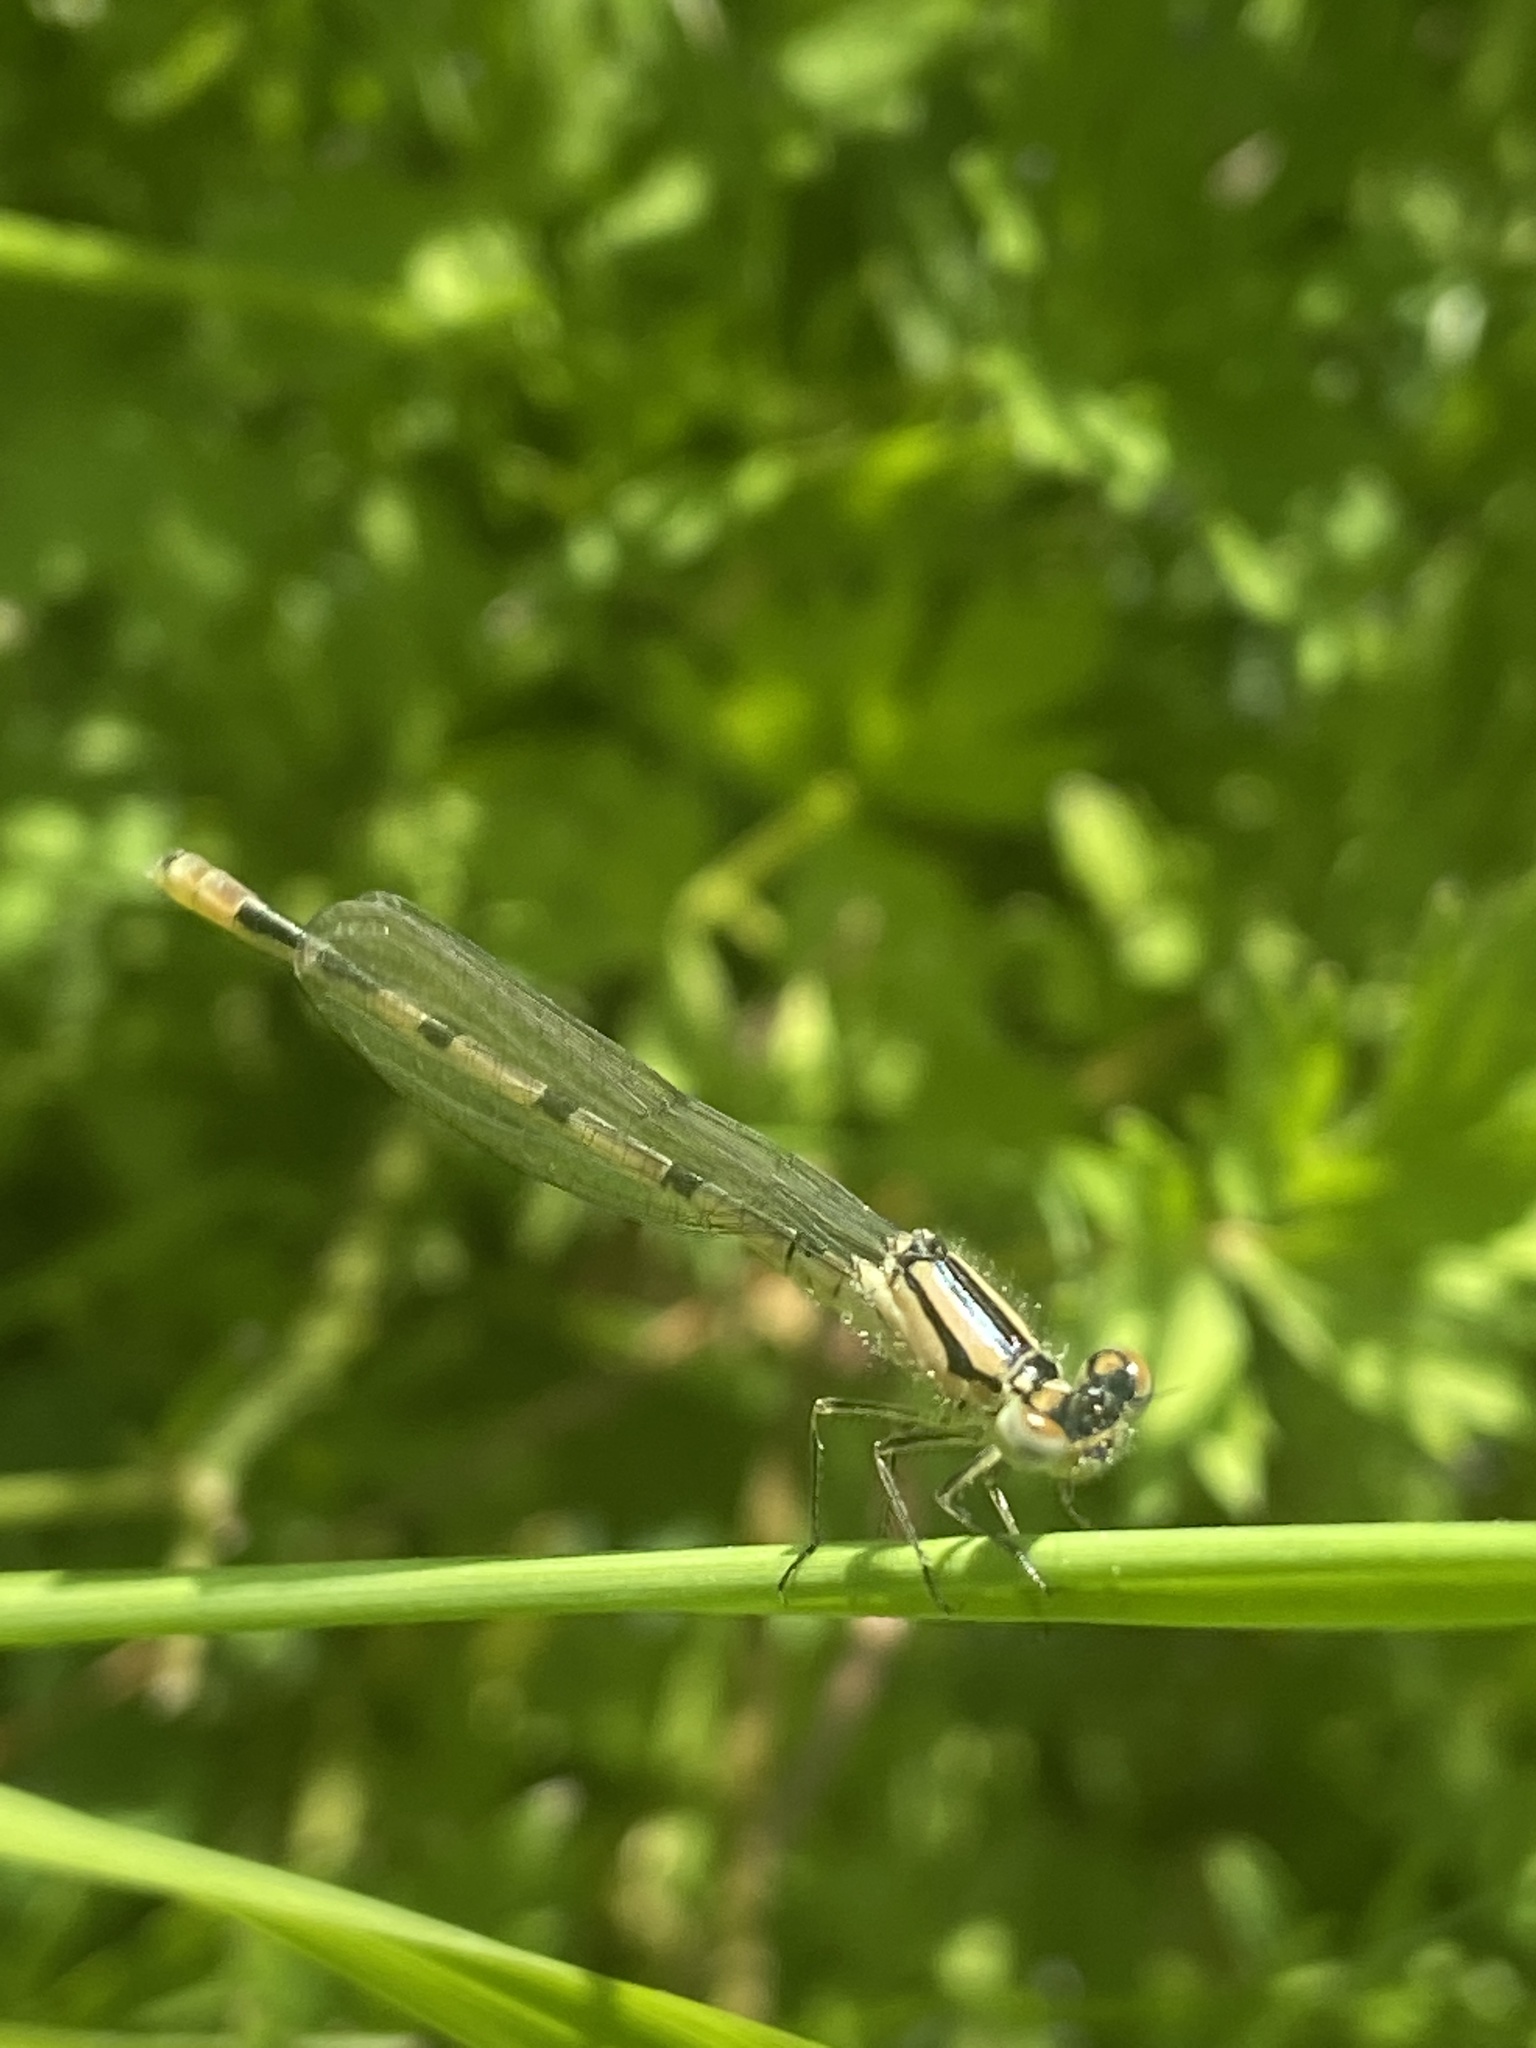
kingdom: Animalia
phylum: Arthropoda
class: Insecta
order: Odonata
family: Coenagrionidae
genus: Enallagma
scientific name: Enallagma cyathigerum
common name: Common blue damselfly
